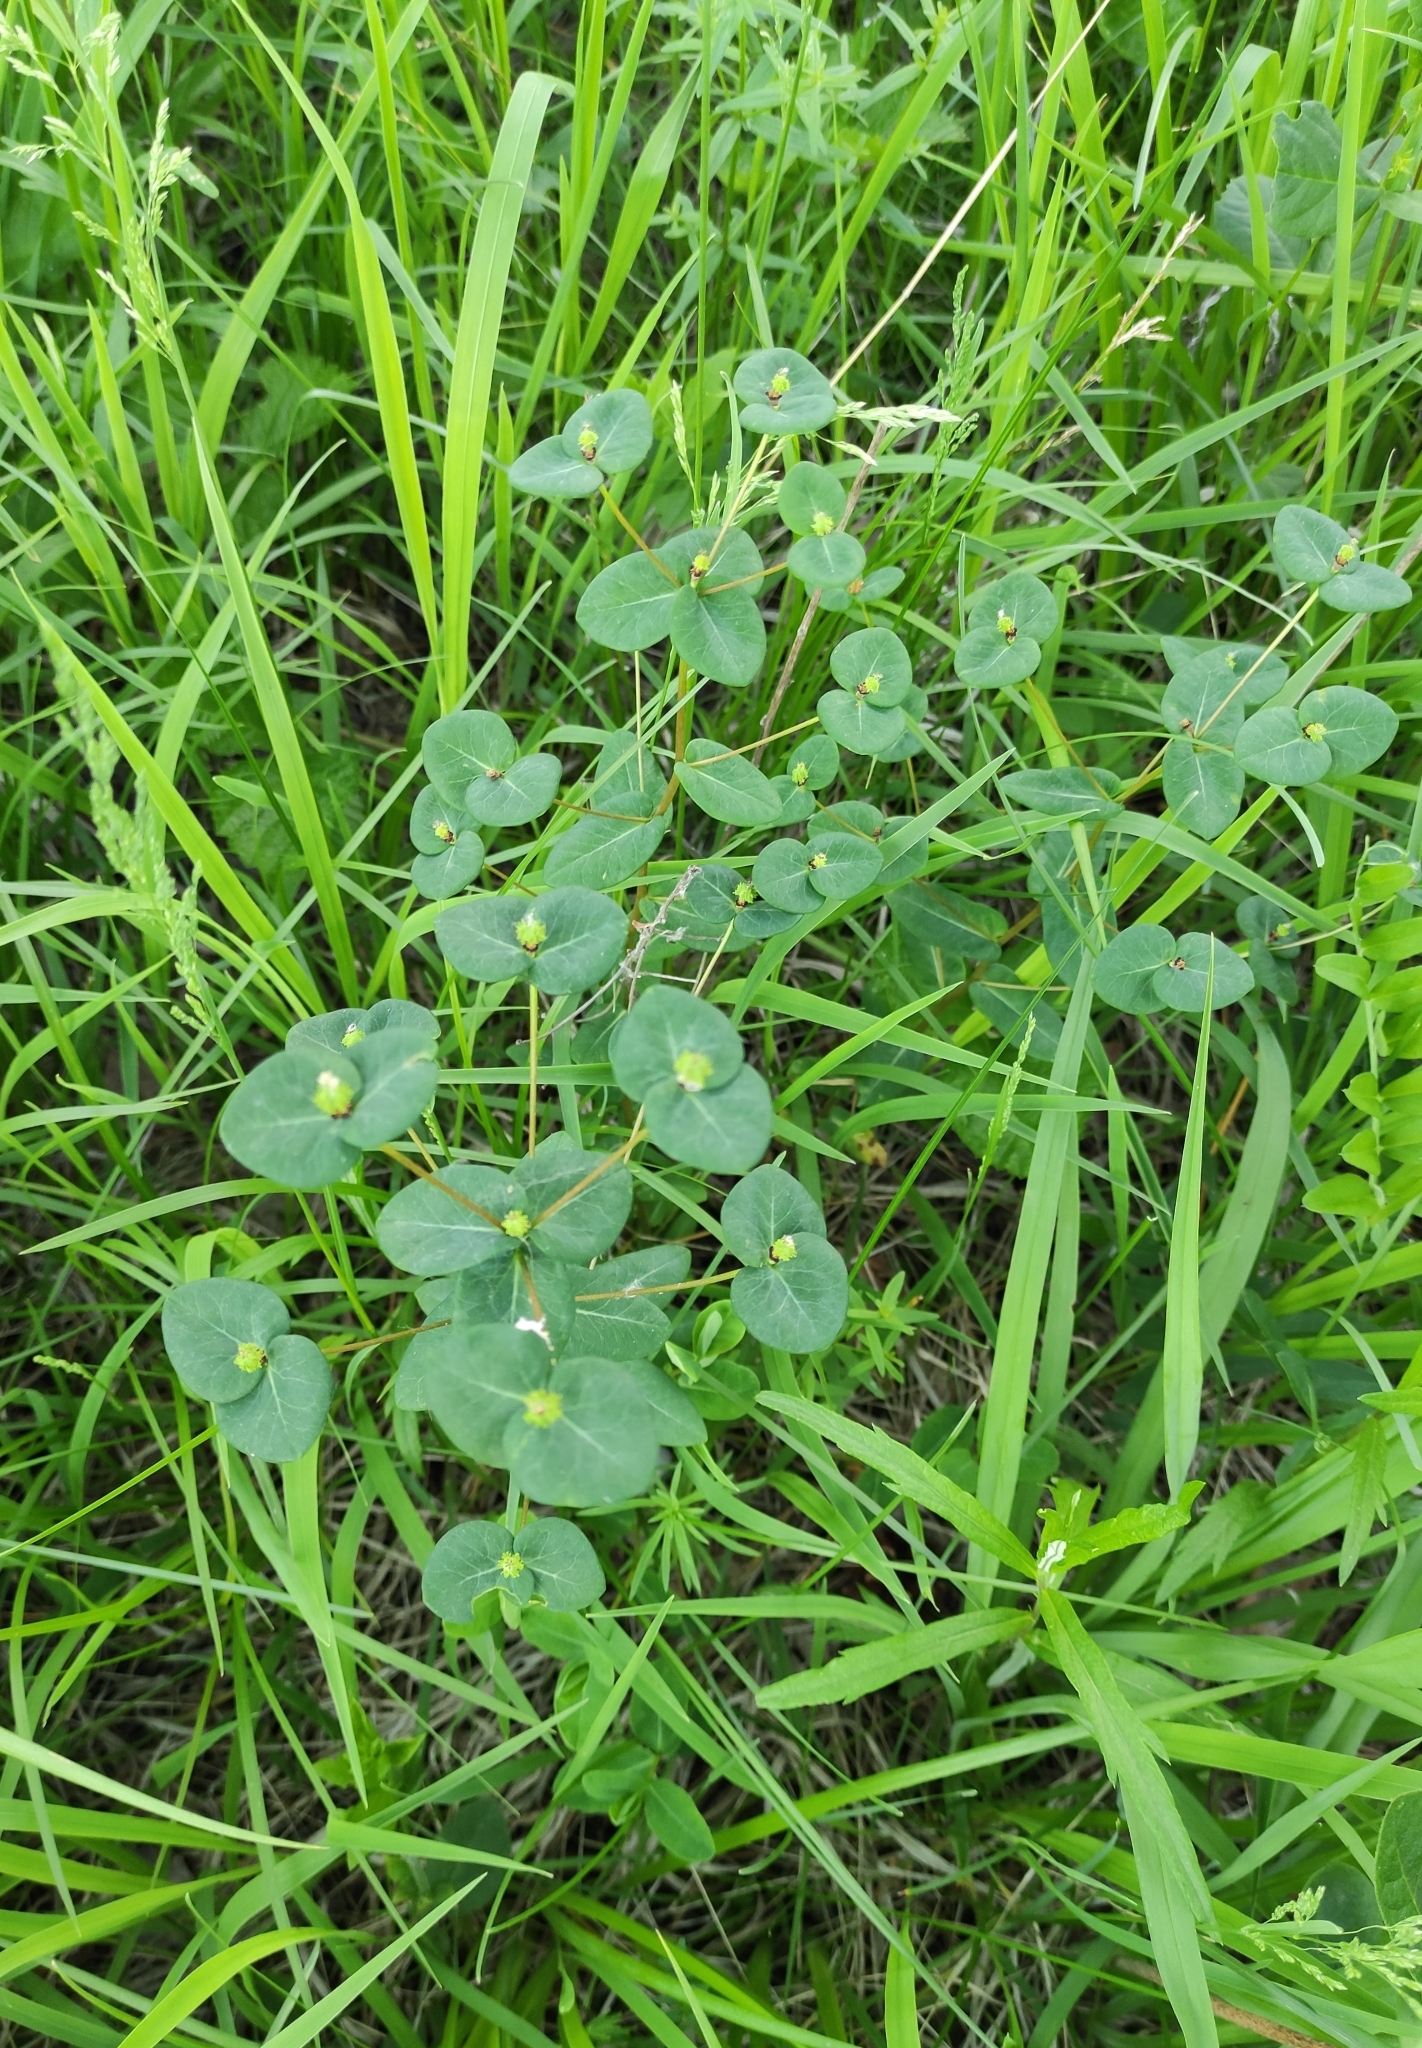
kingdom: Plantae
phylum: Tracheophyta
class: Magnoliopsida
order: Malpighiales
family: Euphorbiaceae
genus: Euphorbia
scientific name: Euphorbia jenisseiensis
